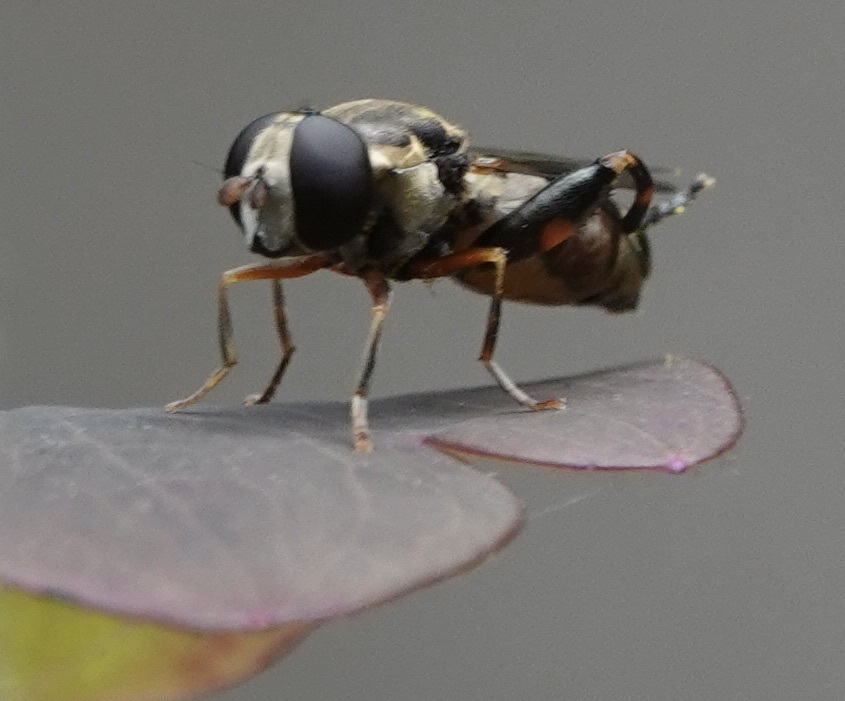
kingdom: Animalia
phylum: Arthropoda
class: Insecta
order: Diptera
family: Syrphidae
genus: Syritta
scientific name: Syritta pipiens
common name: Hover fly
